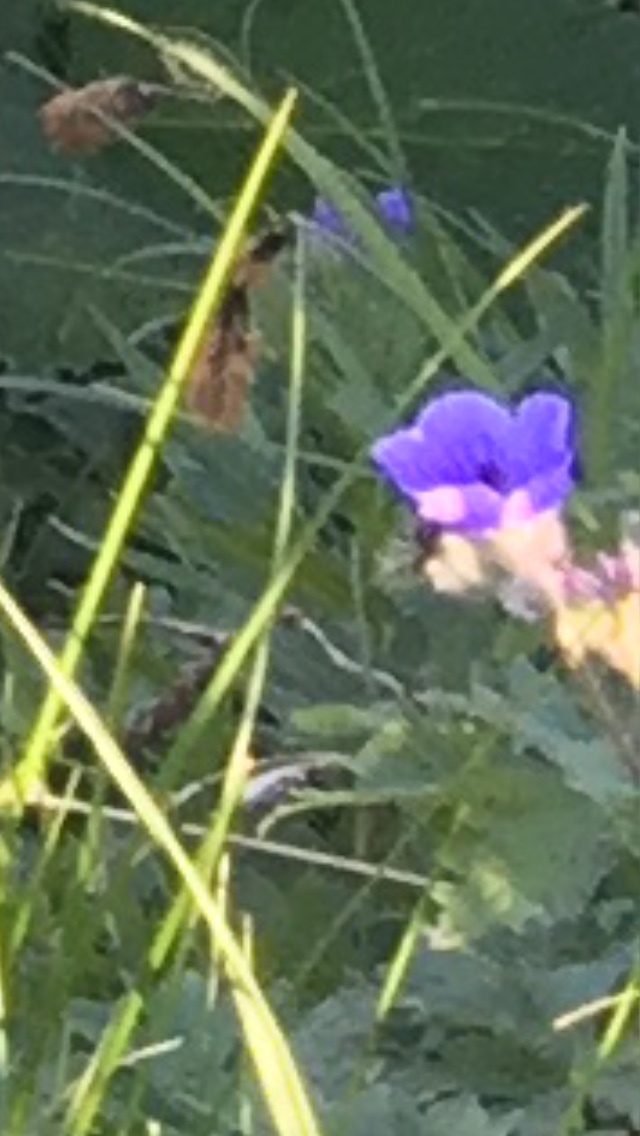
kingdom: Plantae
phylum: Tracheophyta
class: Magnoliopsida
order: Geraniales
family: Geraniaceae
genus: Geranium
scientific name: Geranium erianthum
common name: Northern crane's-bill
